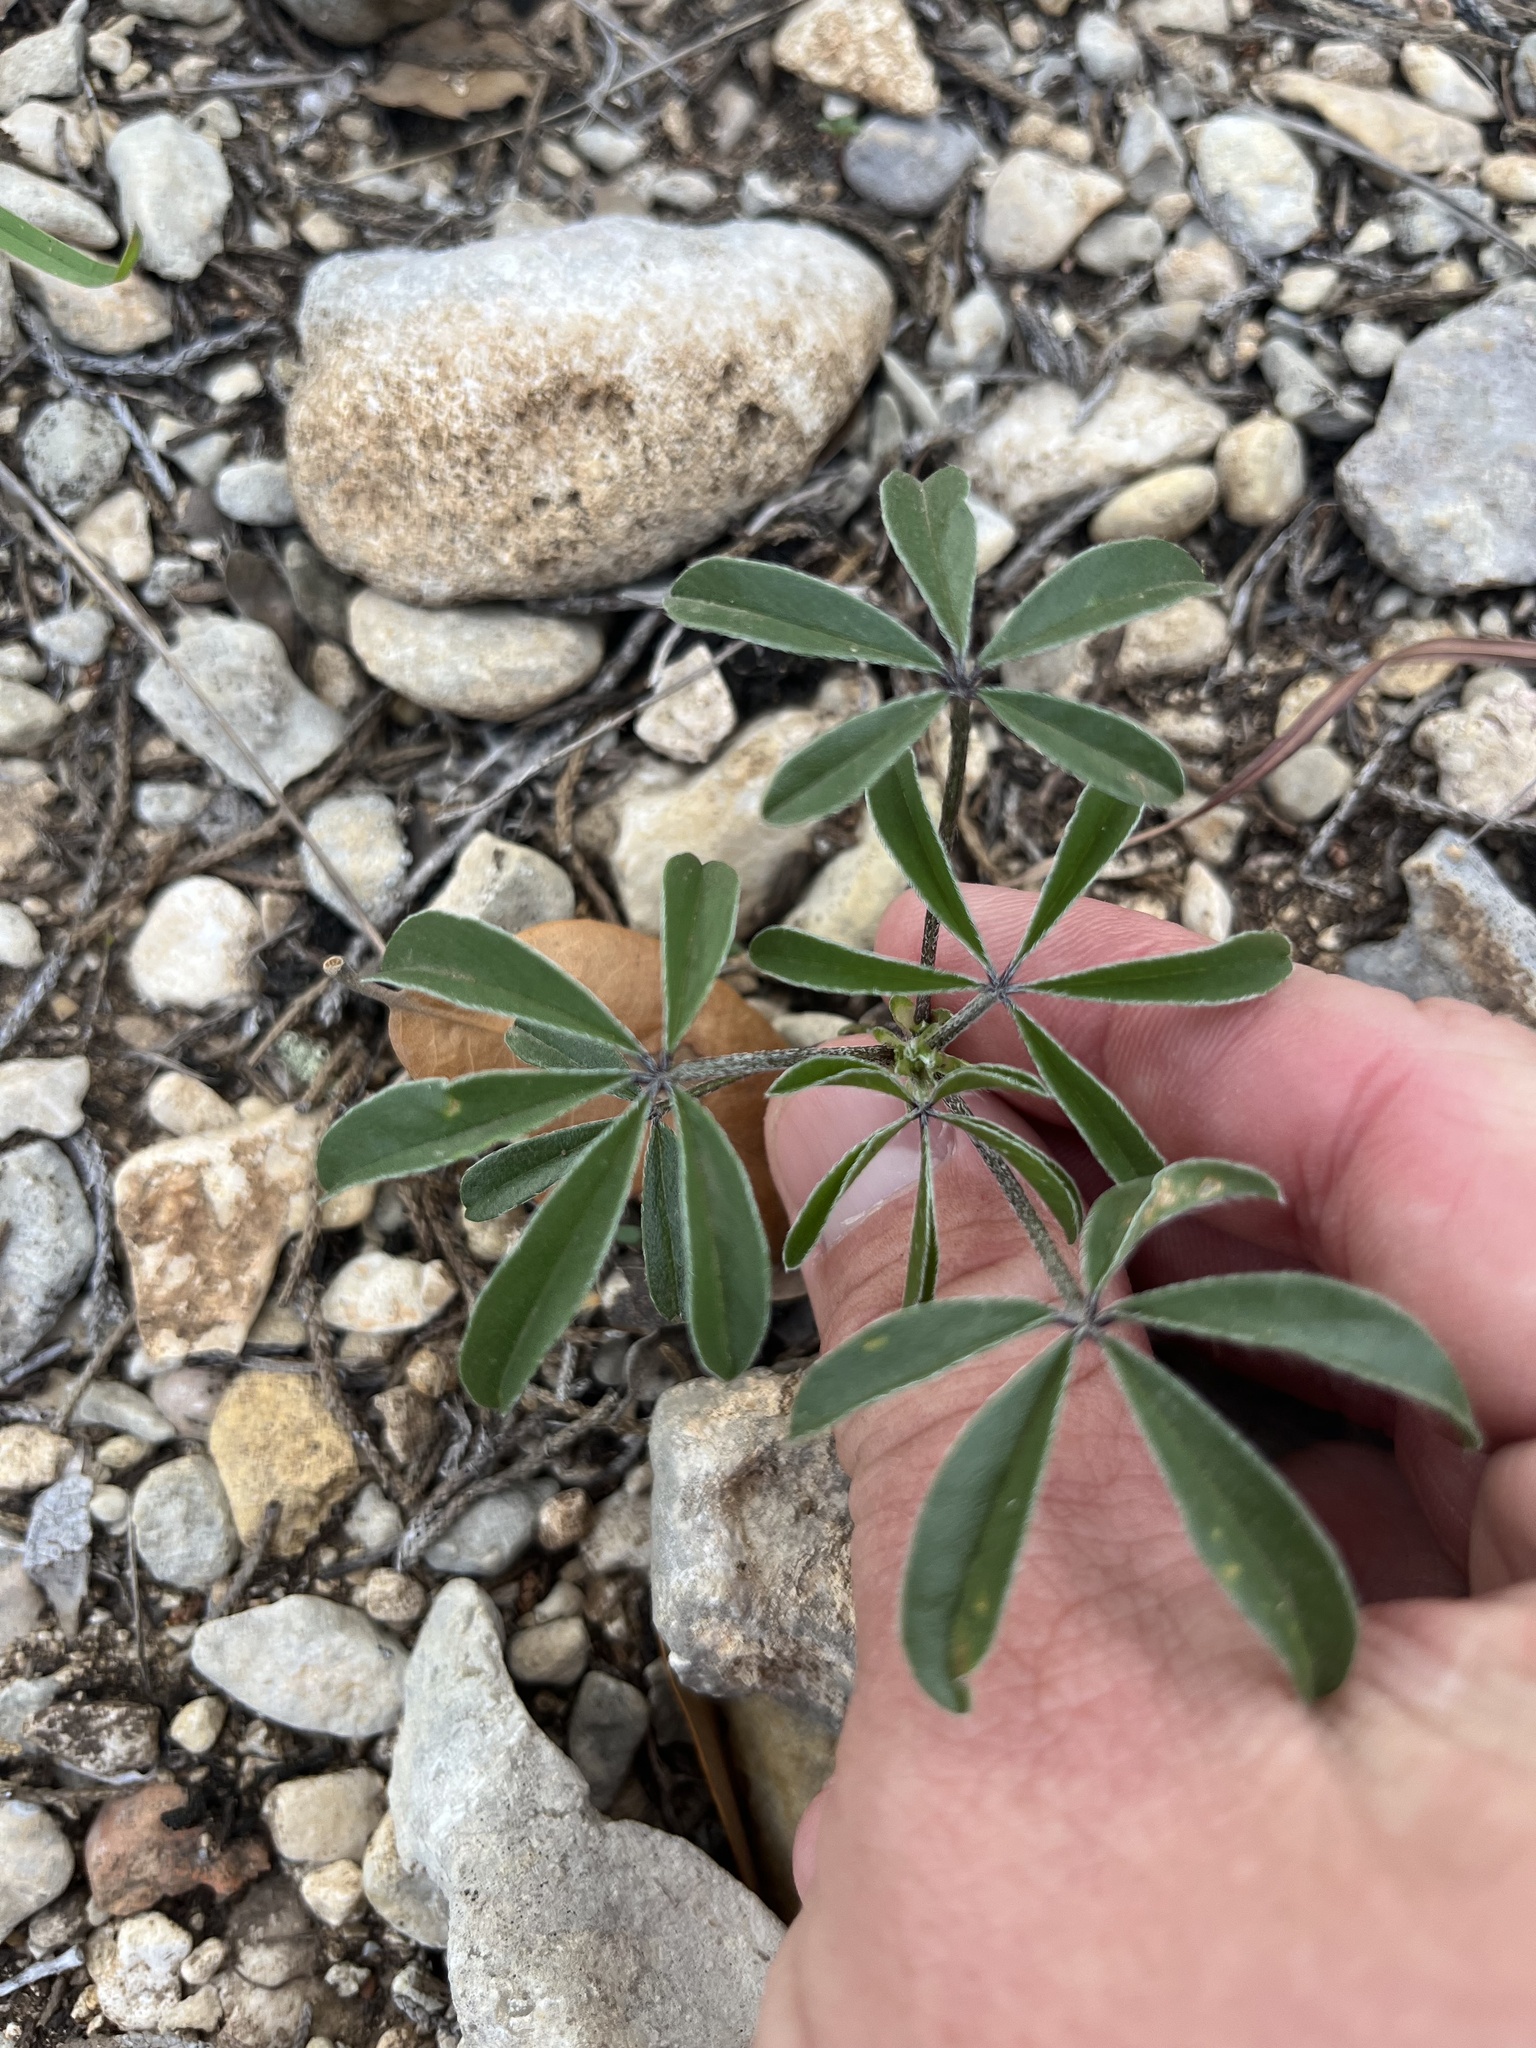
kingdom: Plantae
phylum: Tracheophyta
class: Magnoliopsida
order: Fabales
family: Fabaceae
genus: Pediomelum
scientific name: Pediomelum latestipulatum
